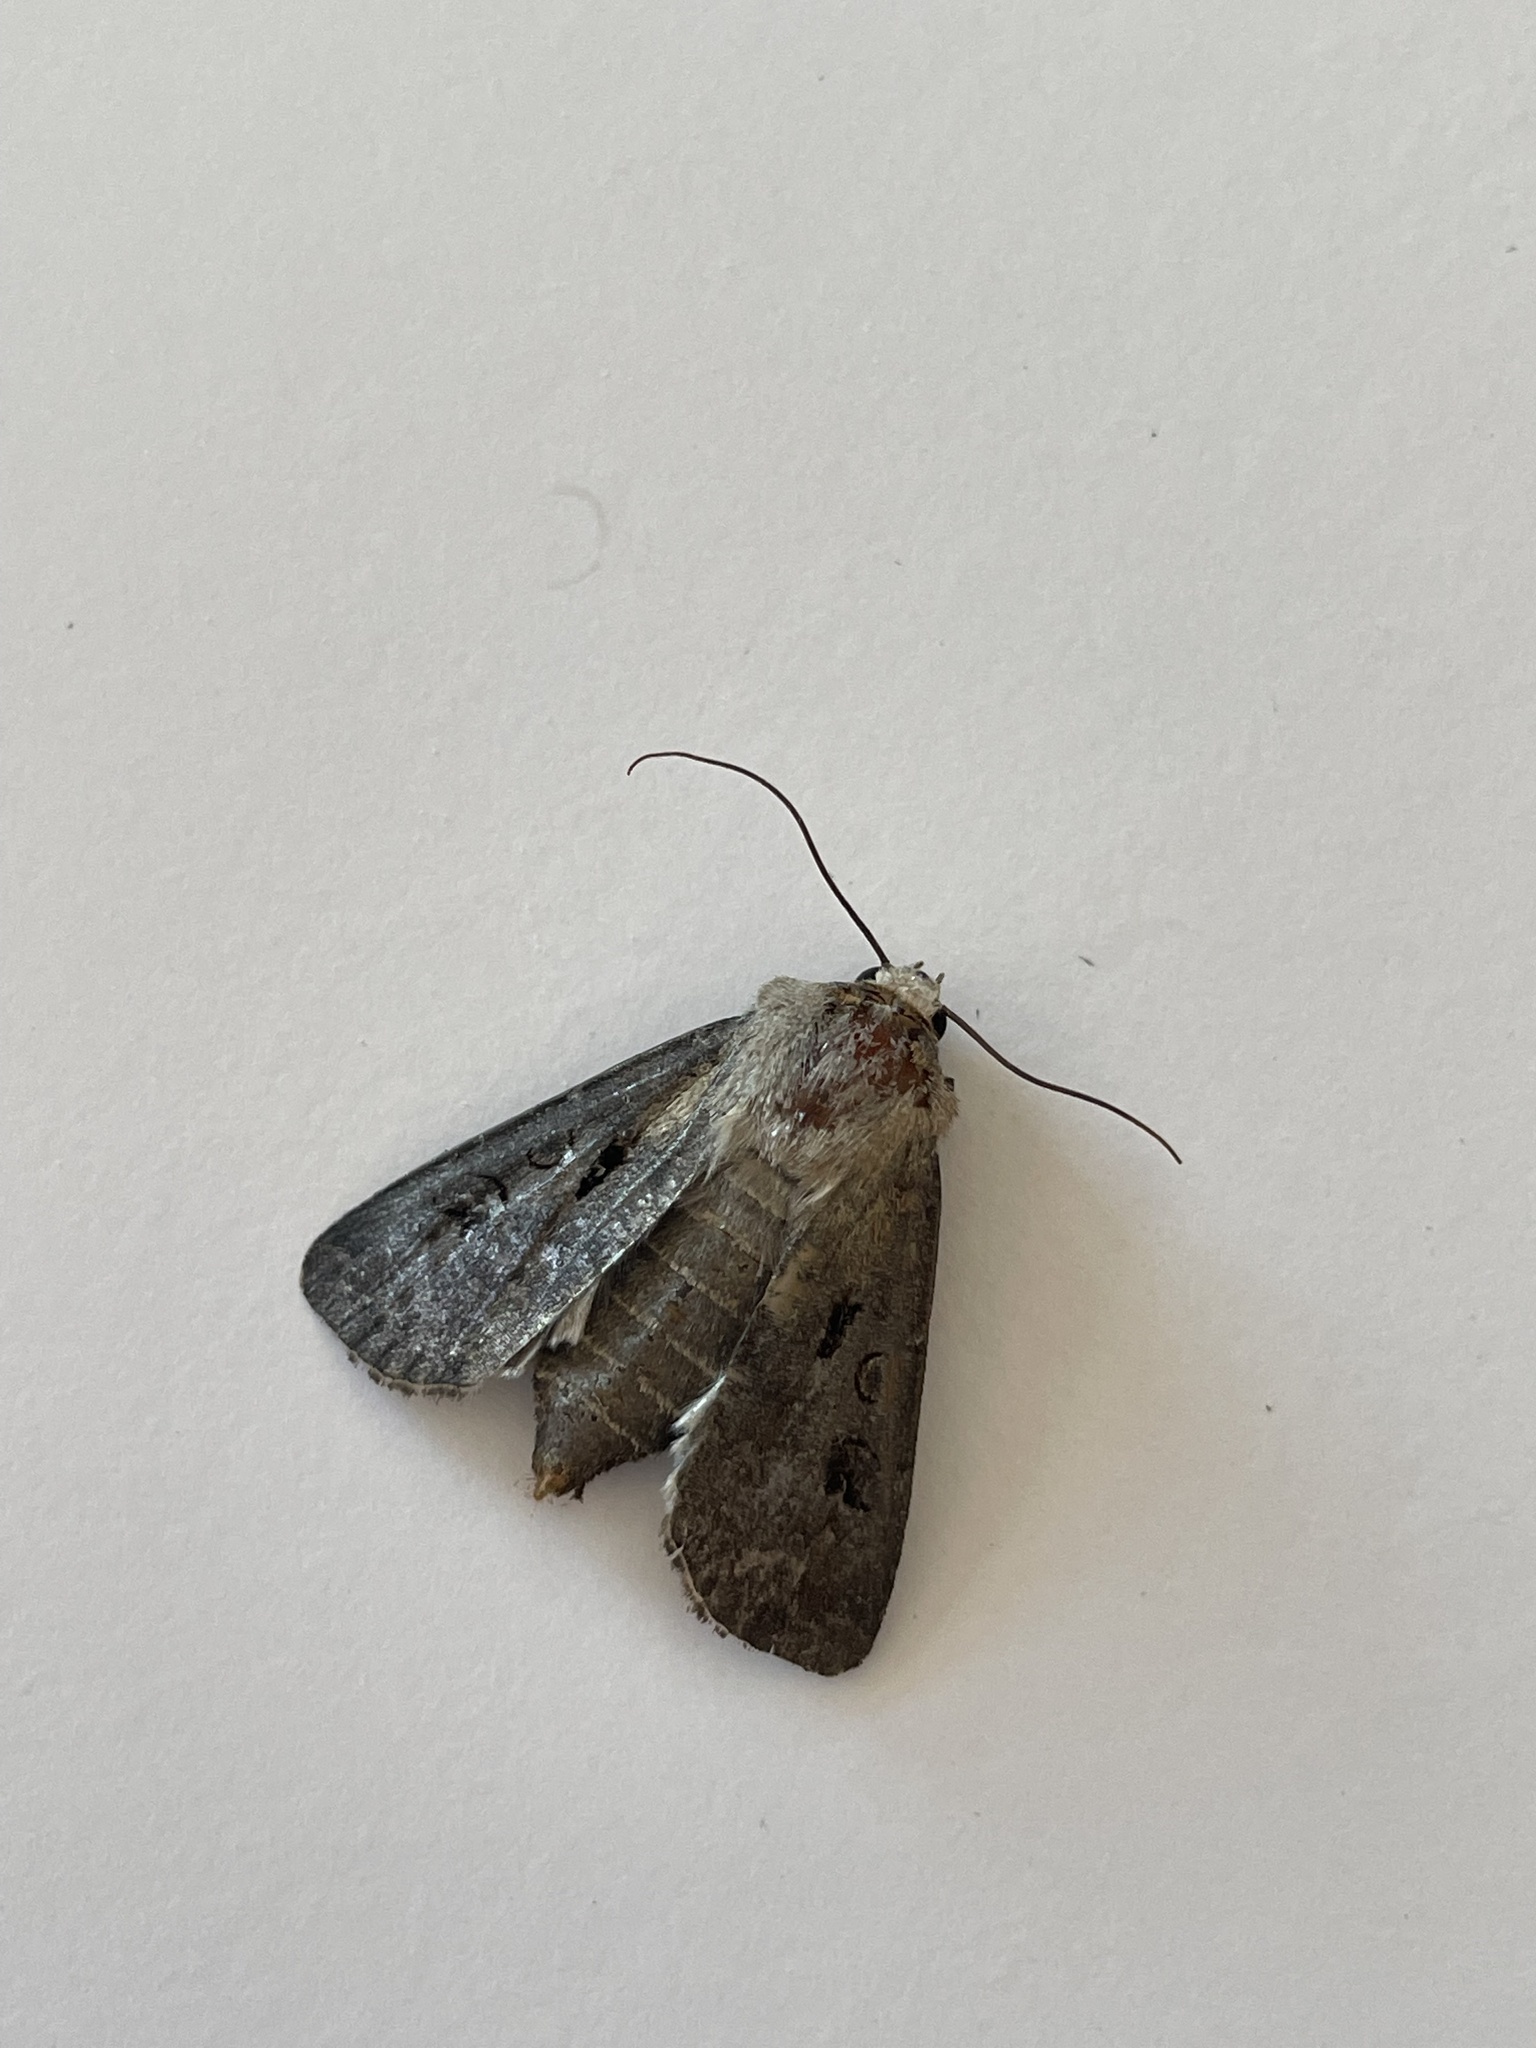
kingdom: Animalia
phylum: Arthropoda
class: Insecta
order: Lepidoptera
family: Noctuidae
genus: Agrotis
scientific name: Agrotis exclamationis
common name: Heart and dart
